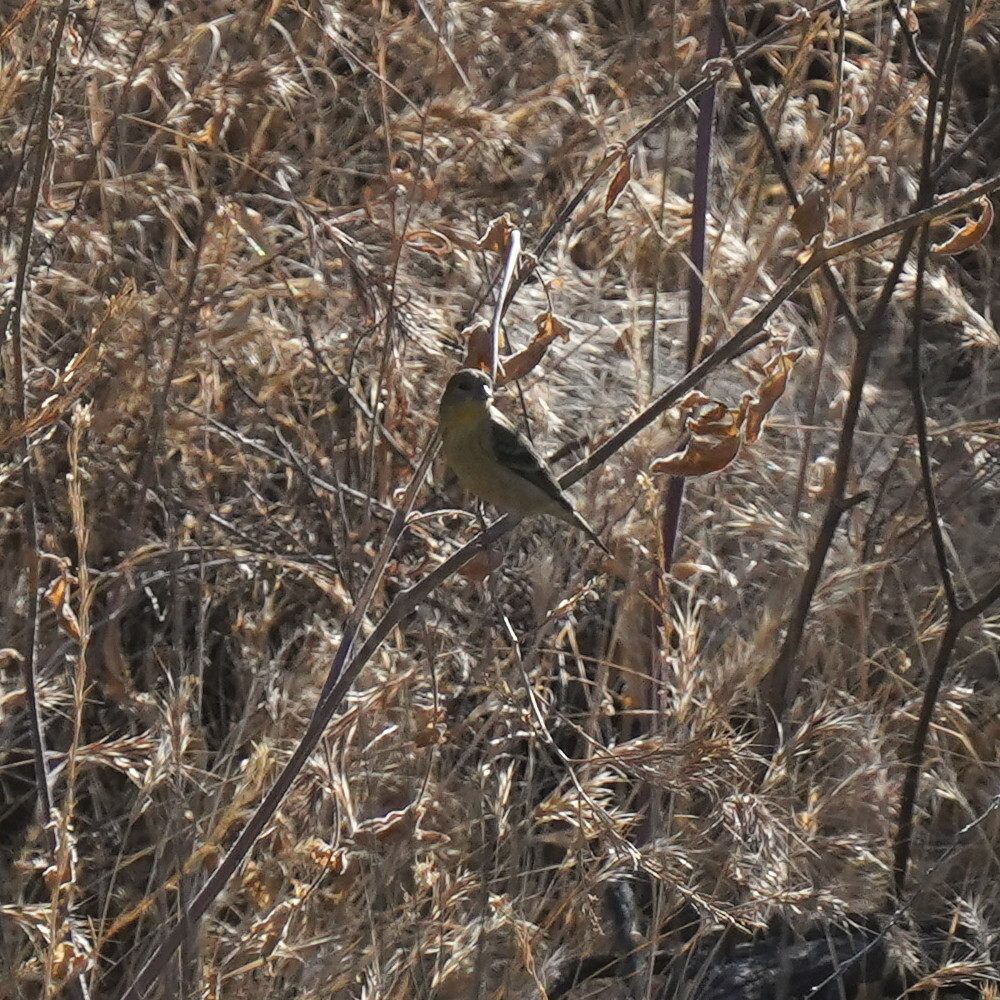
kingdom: Animalia
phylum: Chordata
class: Aves
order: Passeriformes
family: Fringillidae
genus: Spinus
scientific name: Spinus psaltria
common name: Lesser goldfinch
